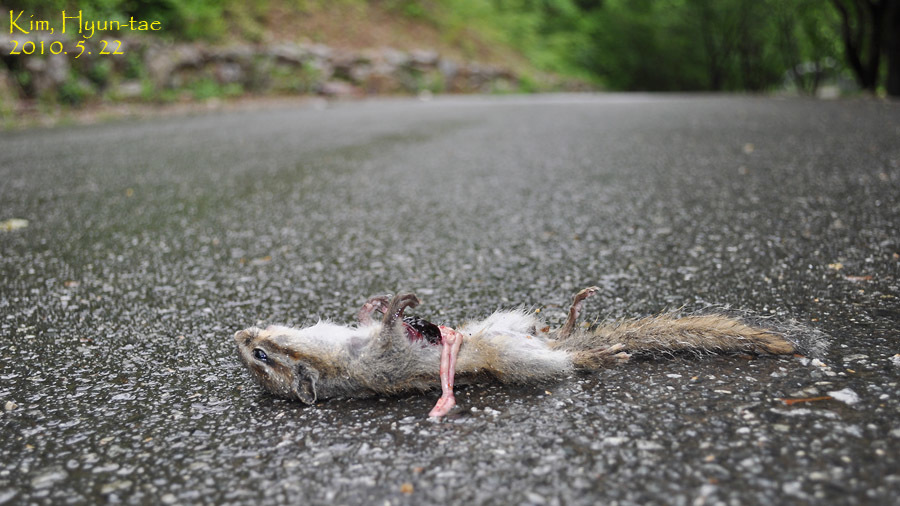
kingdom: Animalia
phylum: Chordata
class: Mammalia
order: Rodentia
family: Sciuridae
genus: Tamias
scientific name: Tamias sibiricus
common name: Siberian chipmunk
